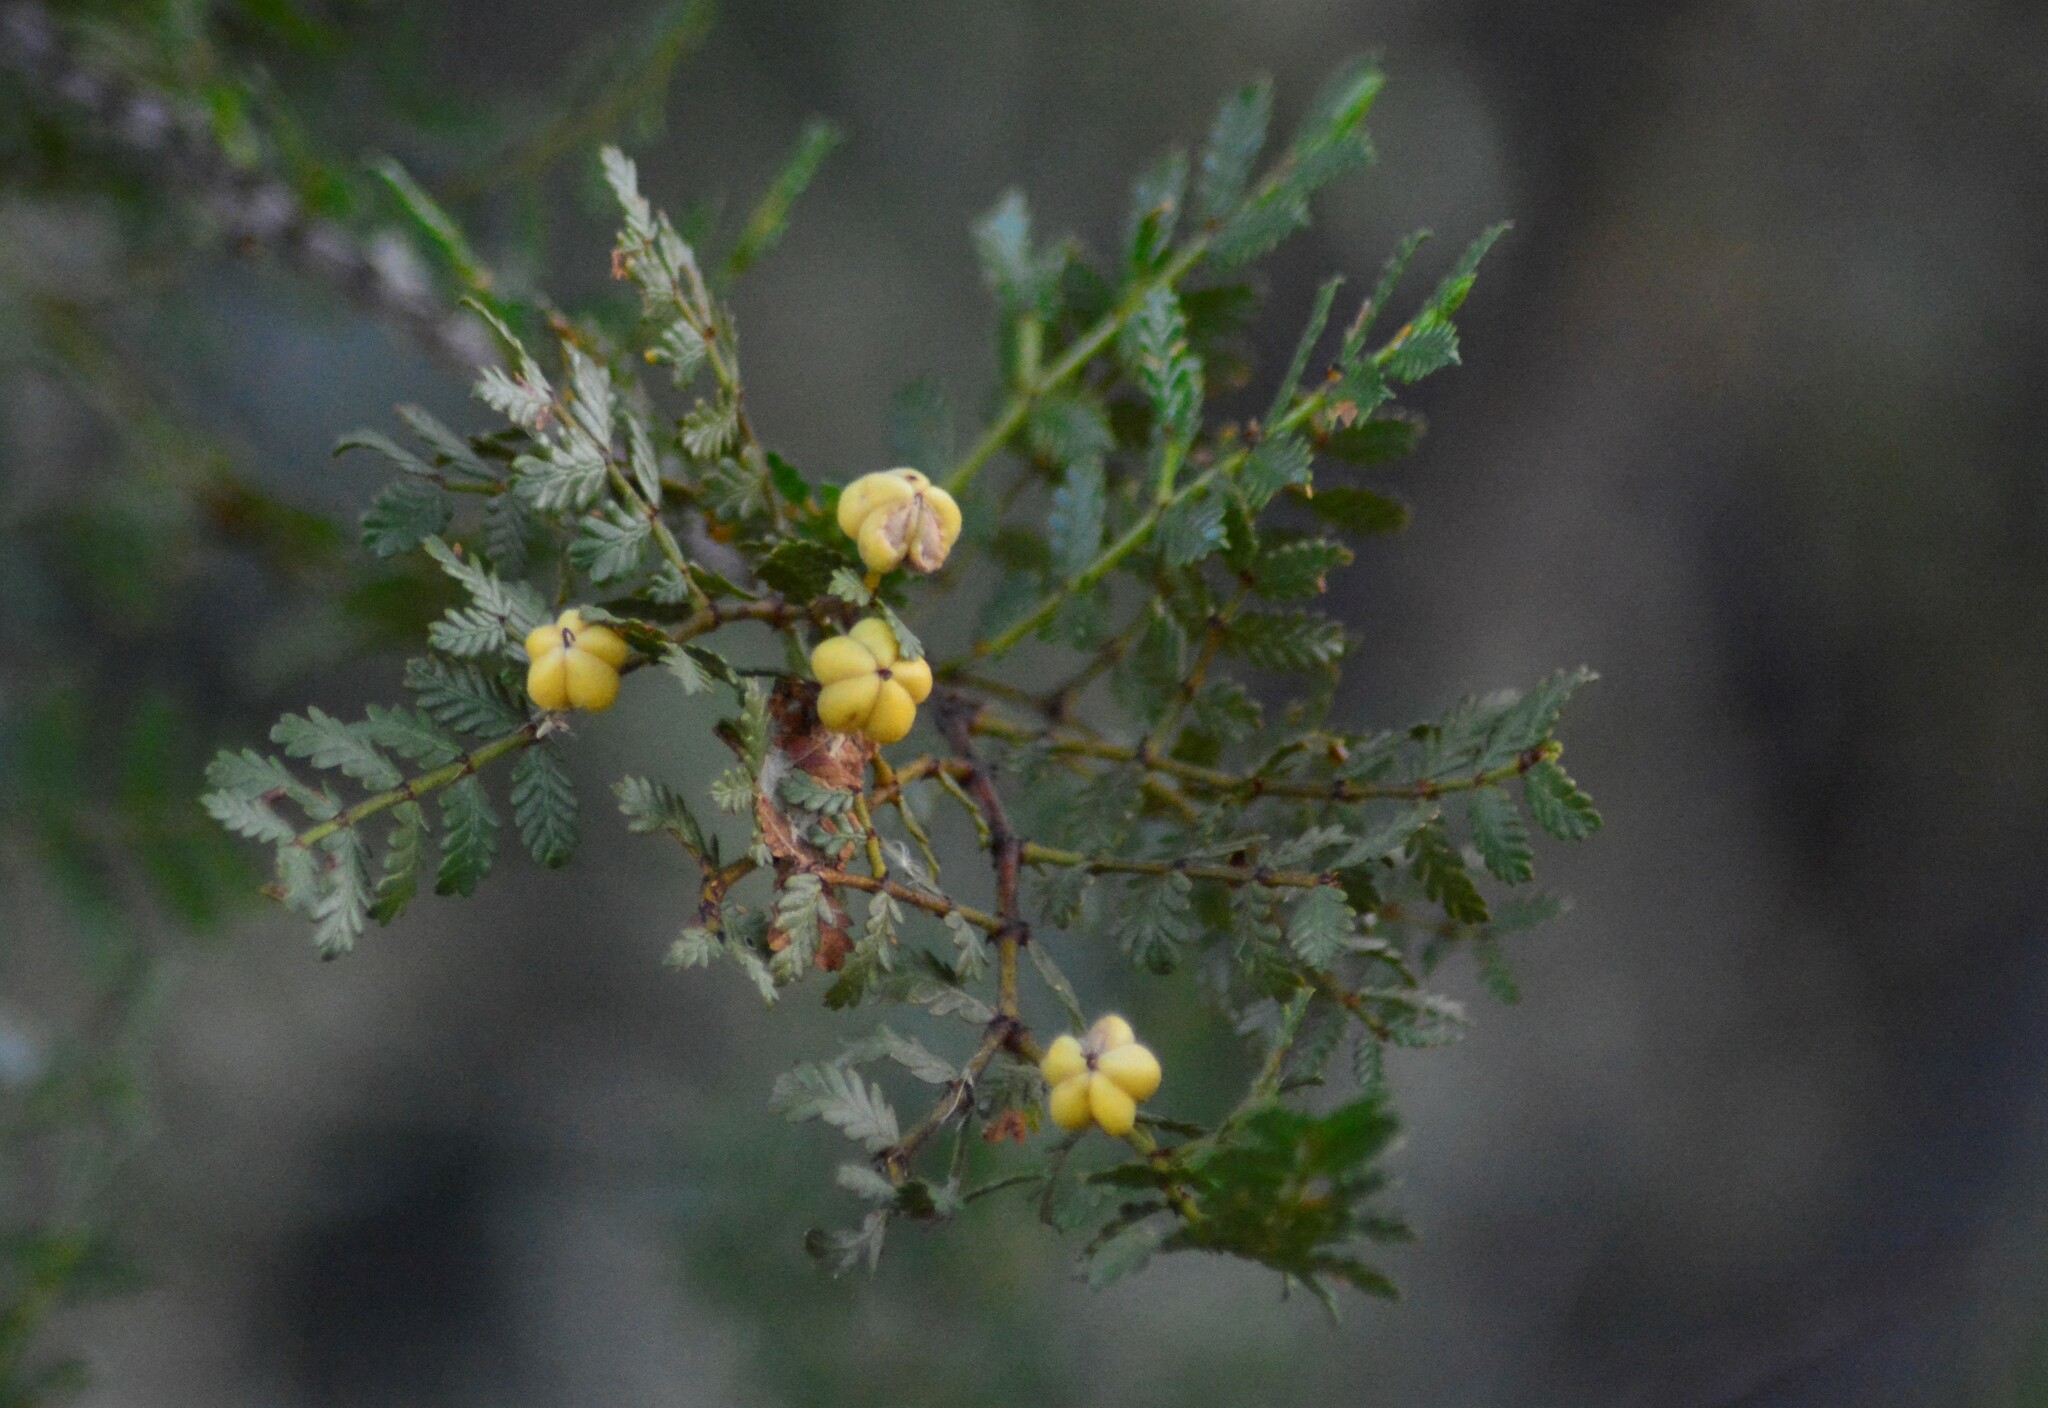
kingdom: Plantae
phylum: Tracheophyta
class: Magnoliopsida
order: Zygophyllales
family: Zygophyllaceae
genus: Larrea
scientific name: Larrea nitida
